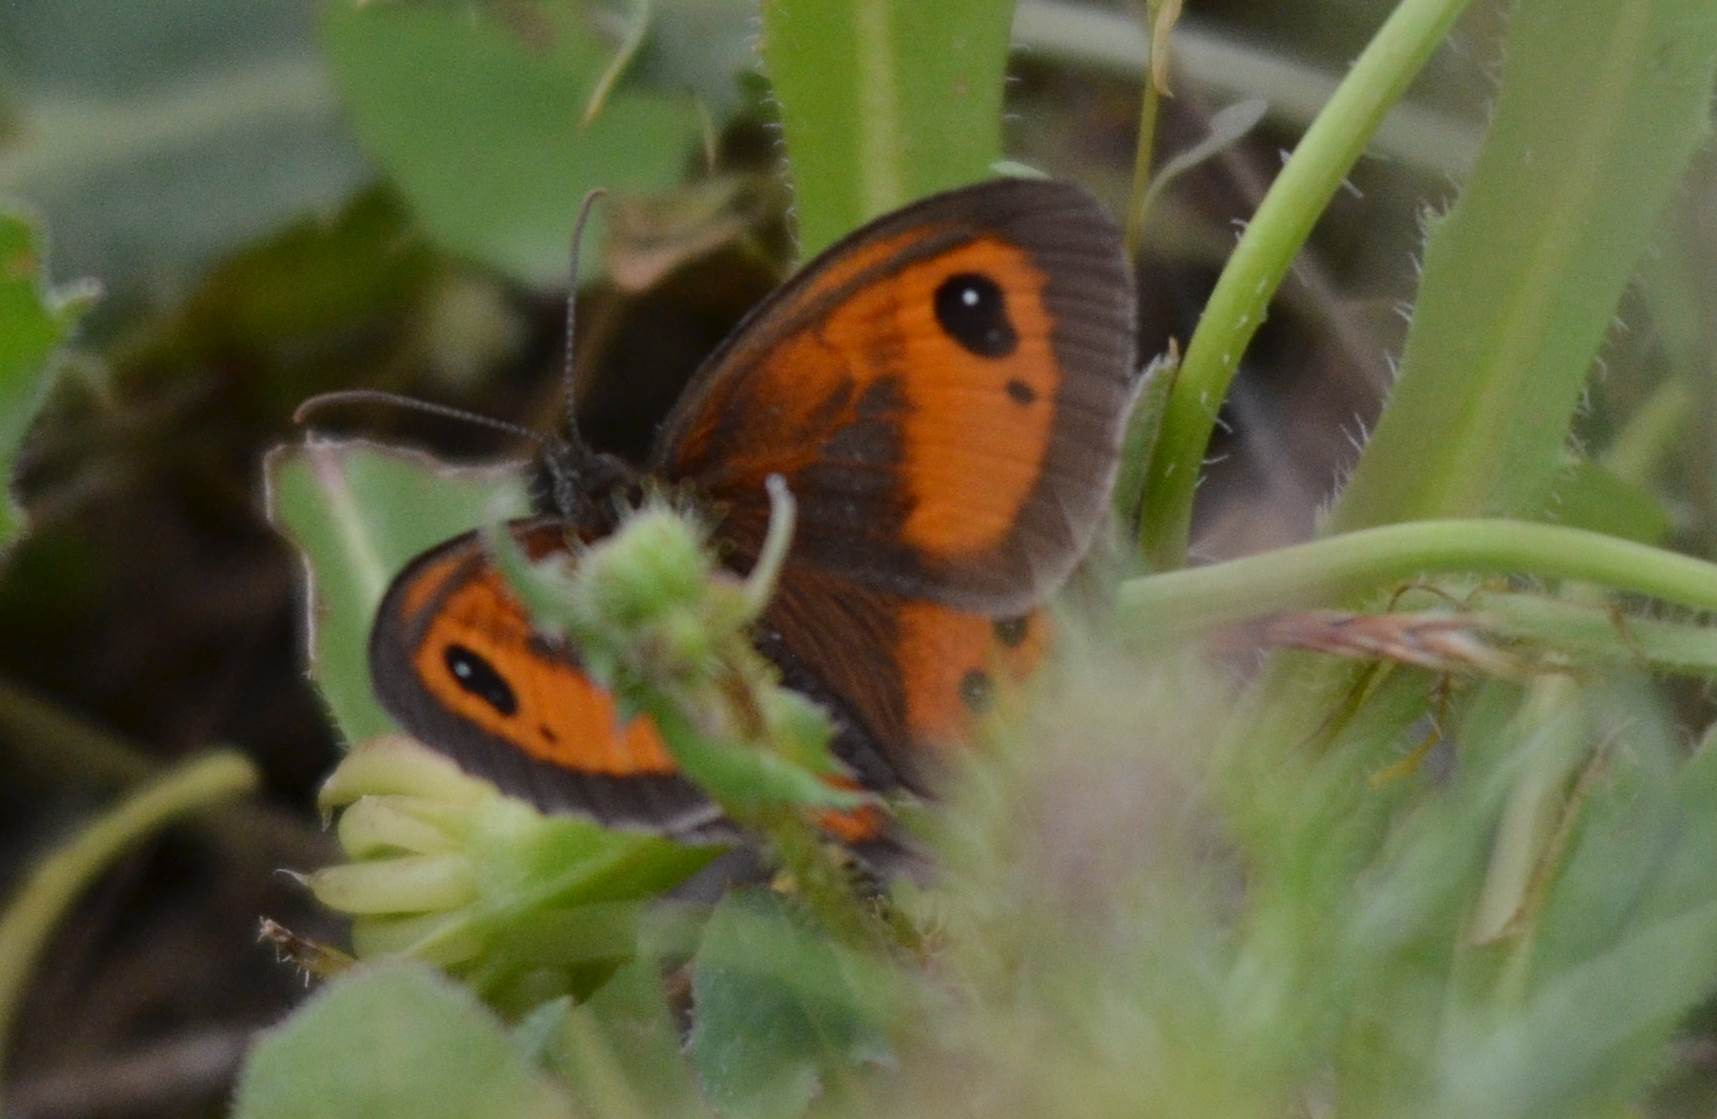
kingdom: Animalia
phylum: Arthropoda
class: Insecta
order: Lepidoptera
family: Nymphalidae
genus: Pyronia
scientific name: Pyronia bathseba
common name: Spanish gatekeeper
